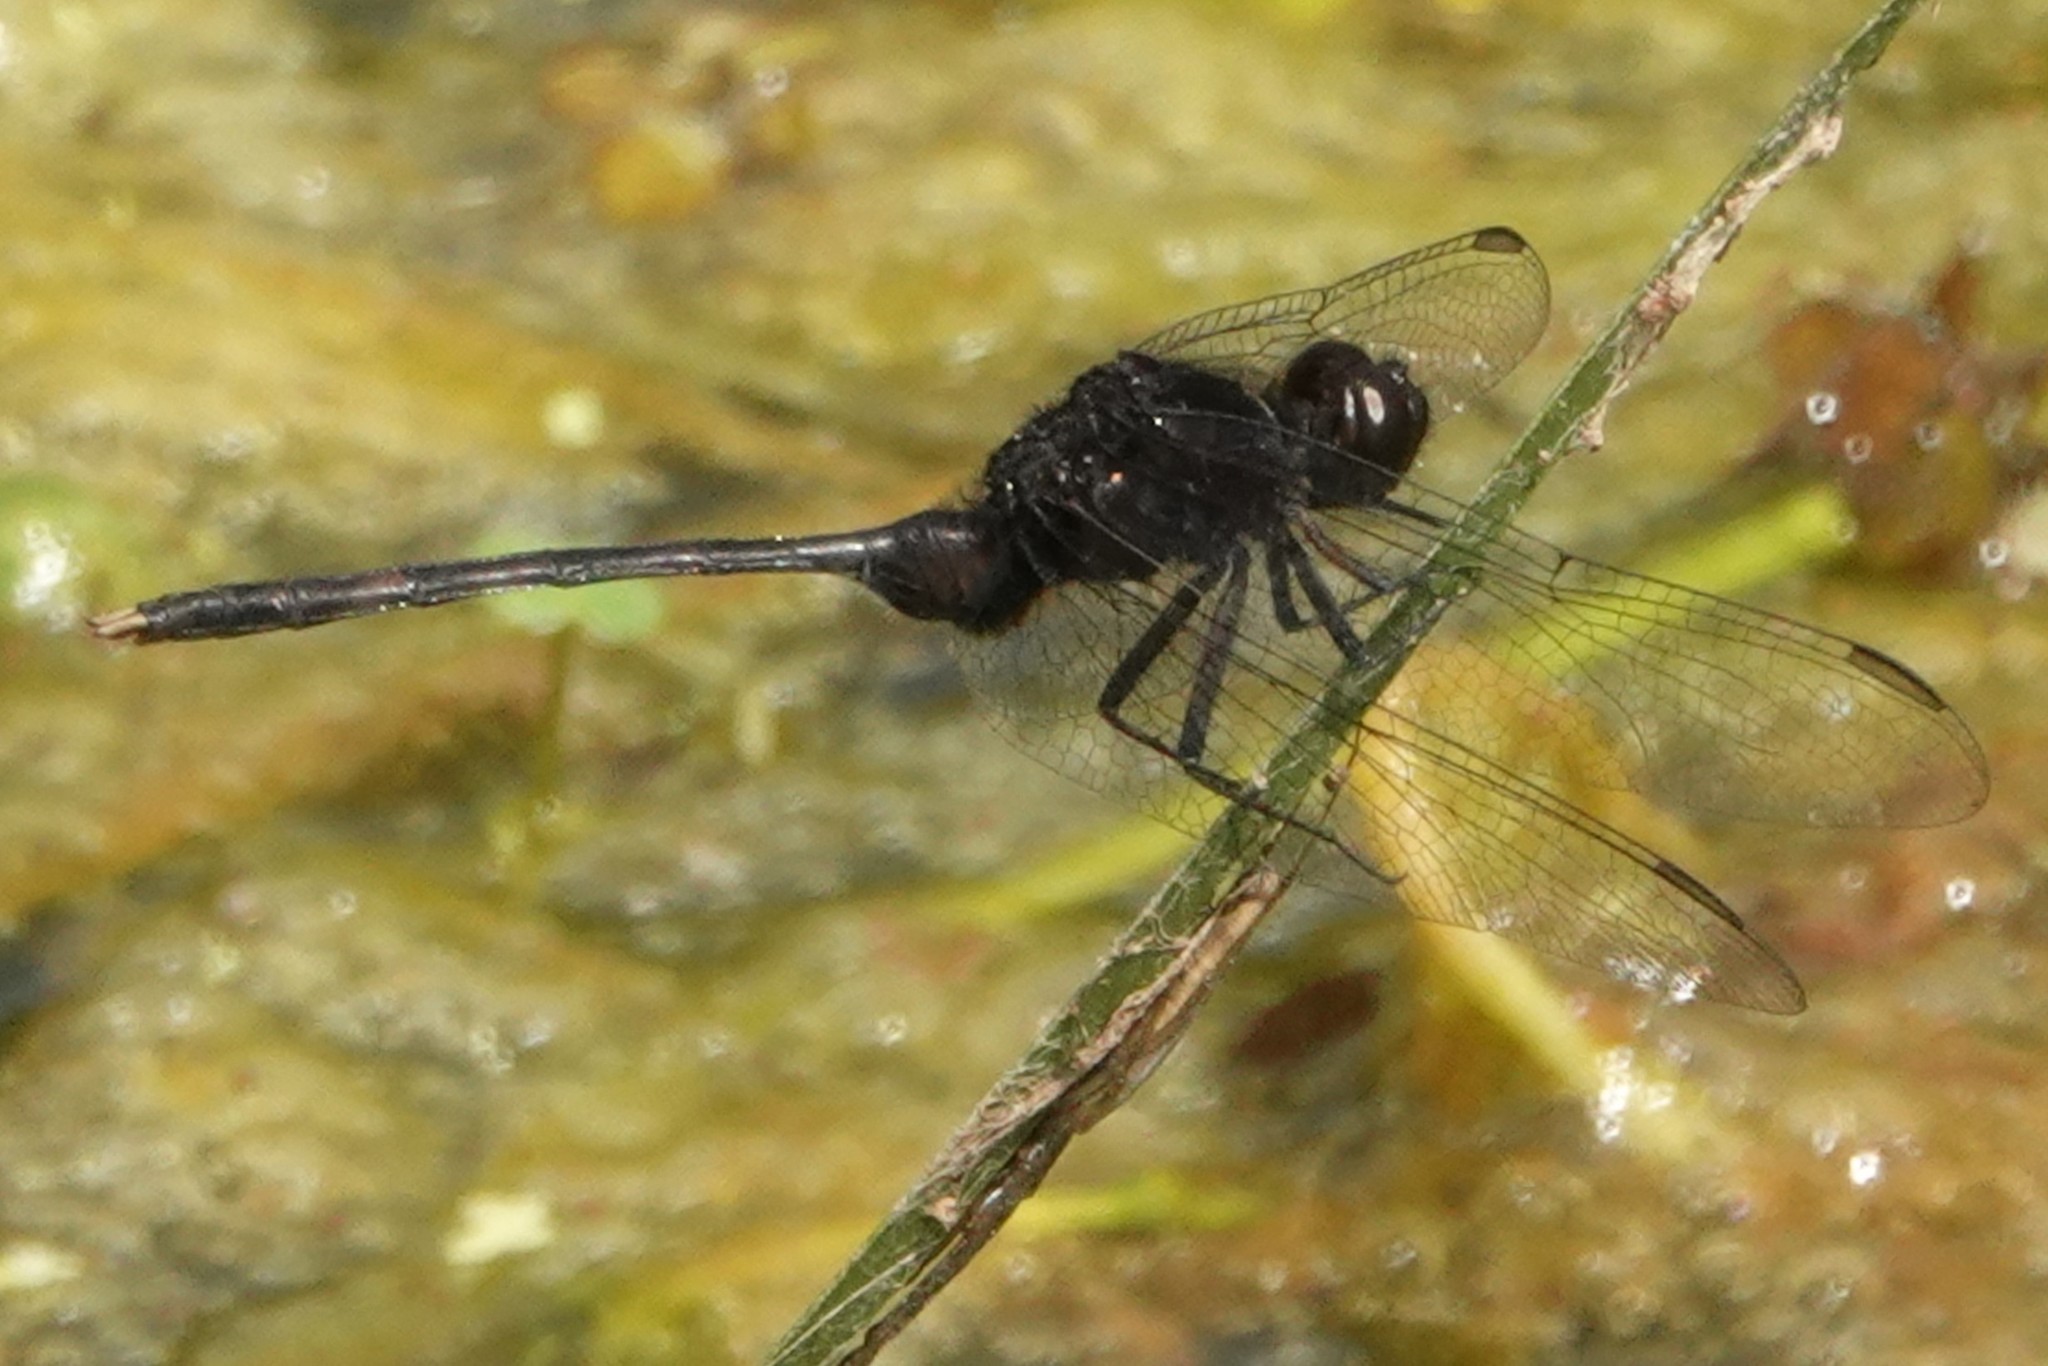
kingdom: Animalia
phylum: Arthropoda
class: Insecta
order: Odonata
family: Libellulidae
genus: Erythemis
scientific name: Erythemis plebeja
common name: Pin-tailed pondhawk
